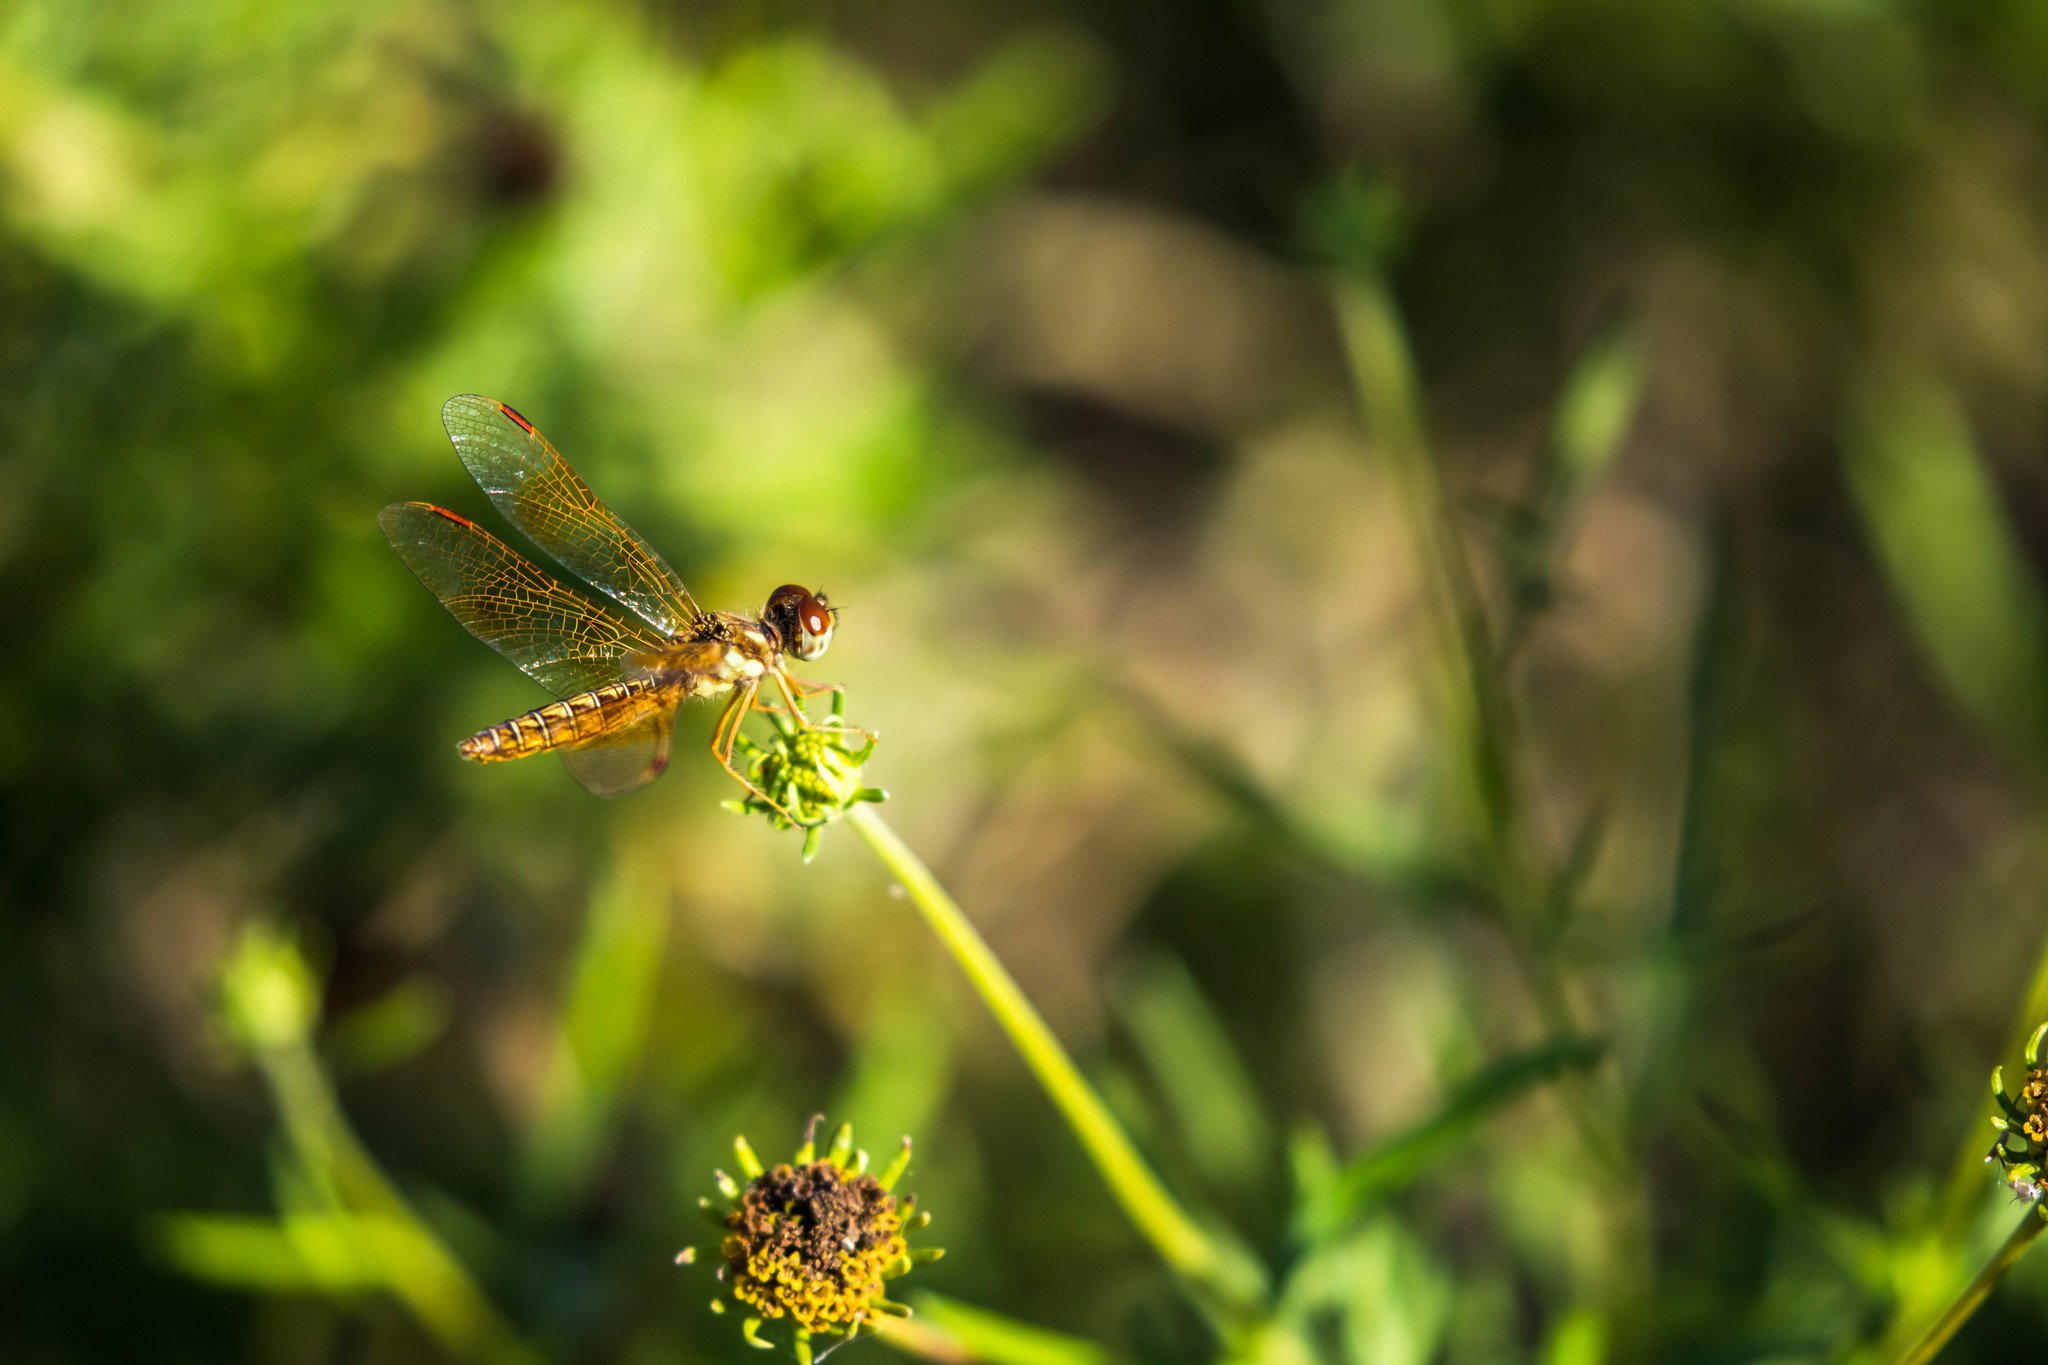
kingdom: Animalia
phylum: Arthropoda
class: Insecta
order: Odonata
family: Libellulidae
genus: Perithemis
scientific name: Perithemis tenera
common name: Eastern amberwing
